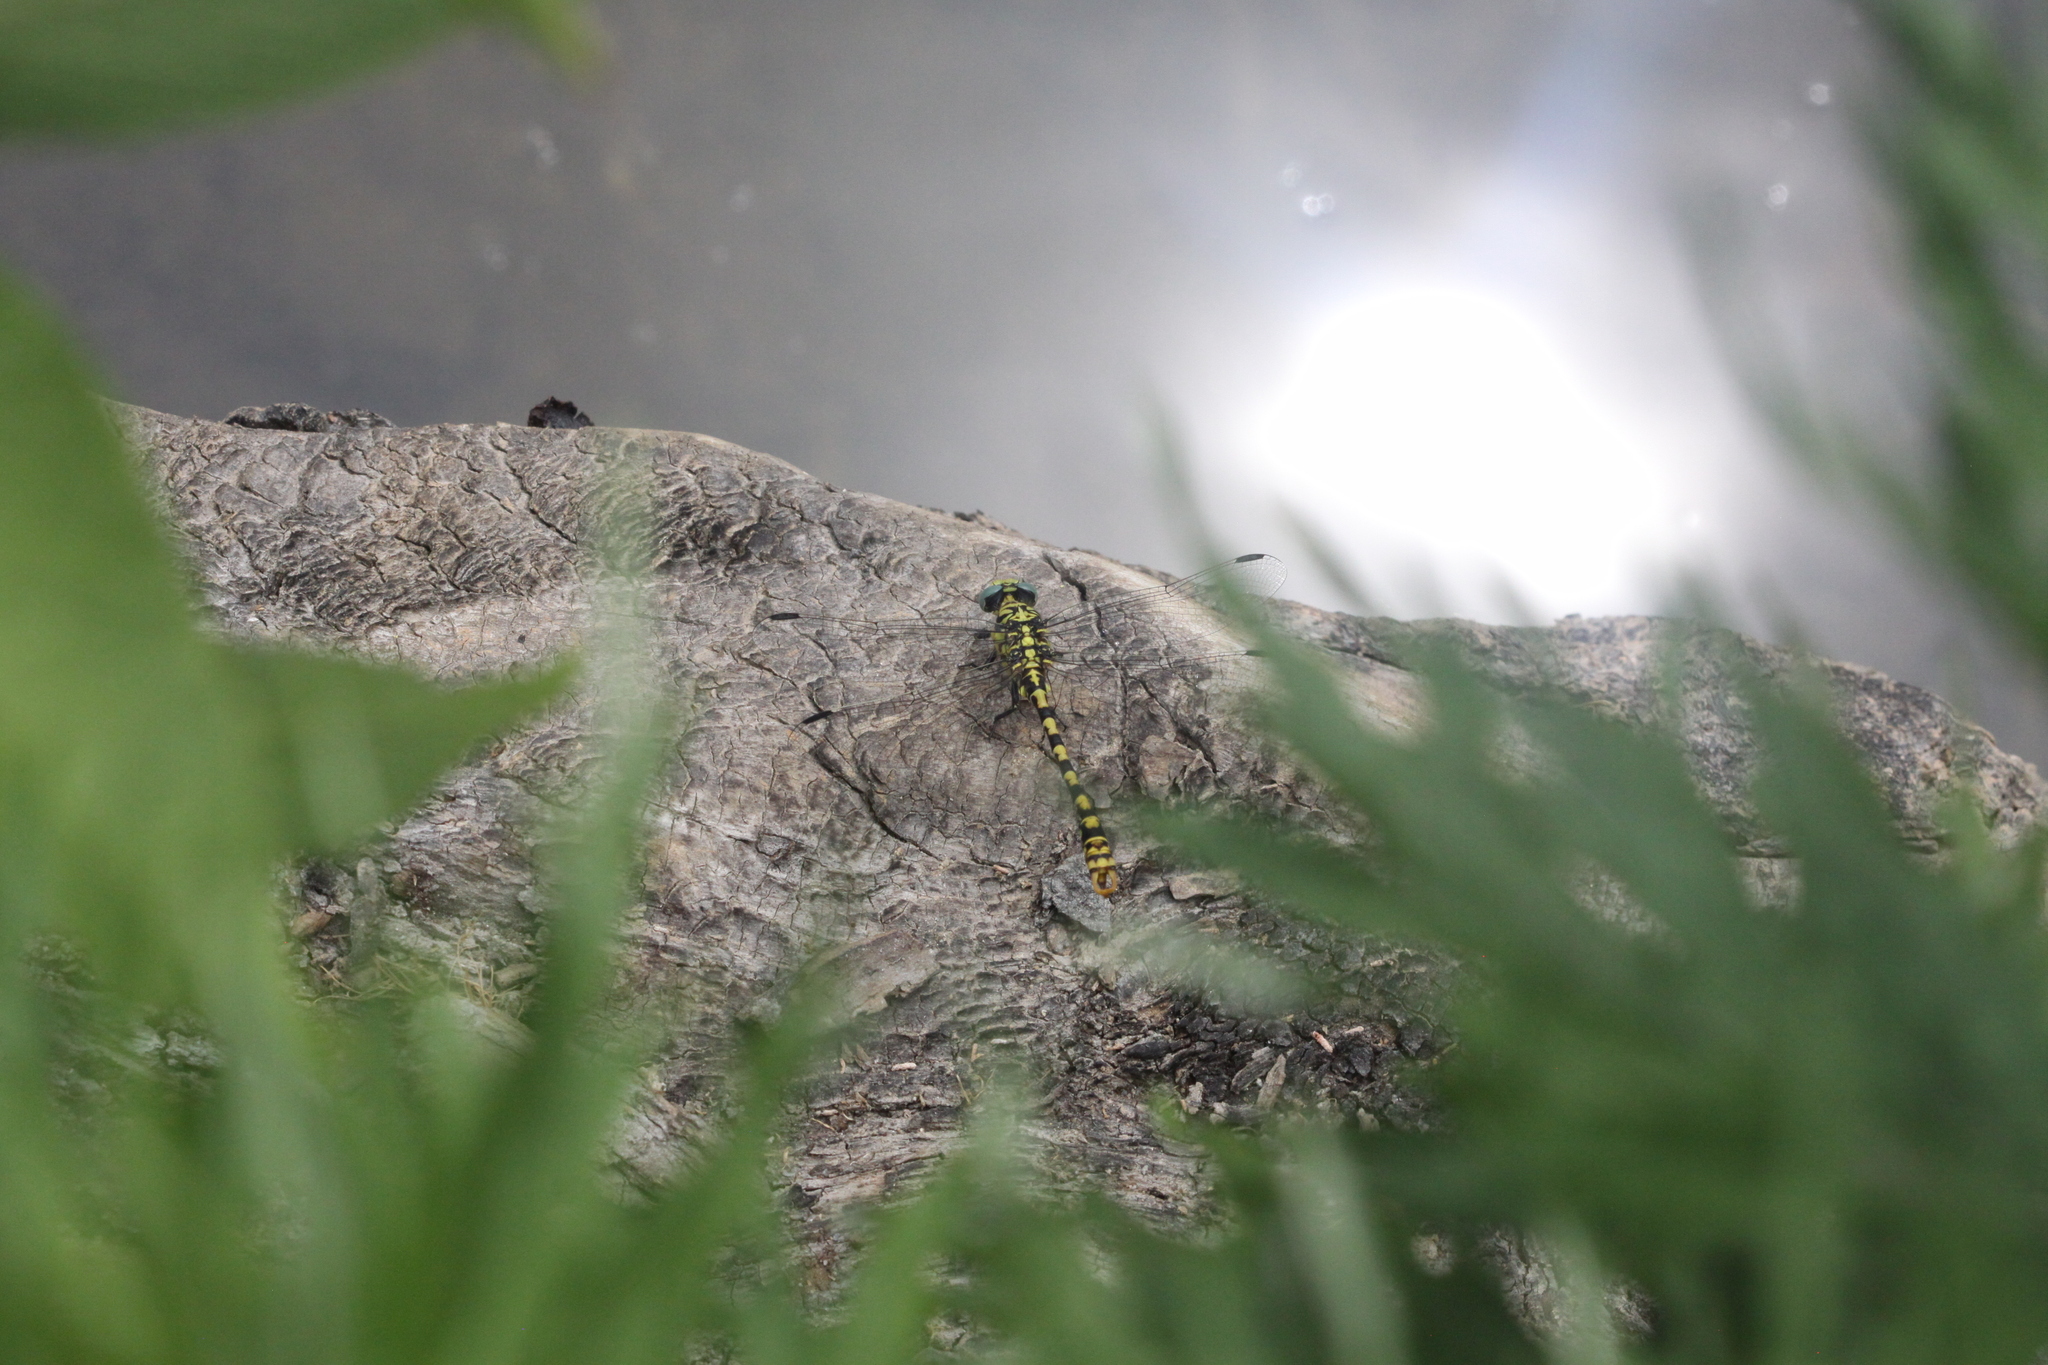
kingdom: Animalia
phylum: Arthropoda
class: Insecta
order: Odonata
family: Gomphidae
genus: Onychogomphus
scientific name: Onychogomphus forcipatus
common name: Small pincertail
